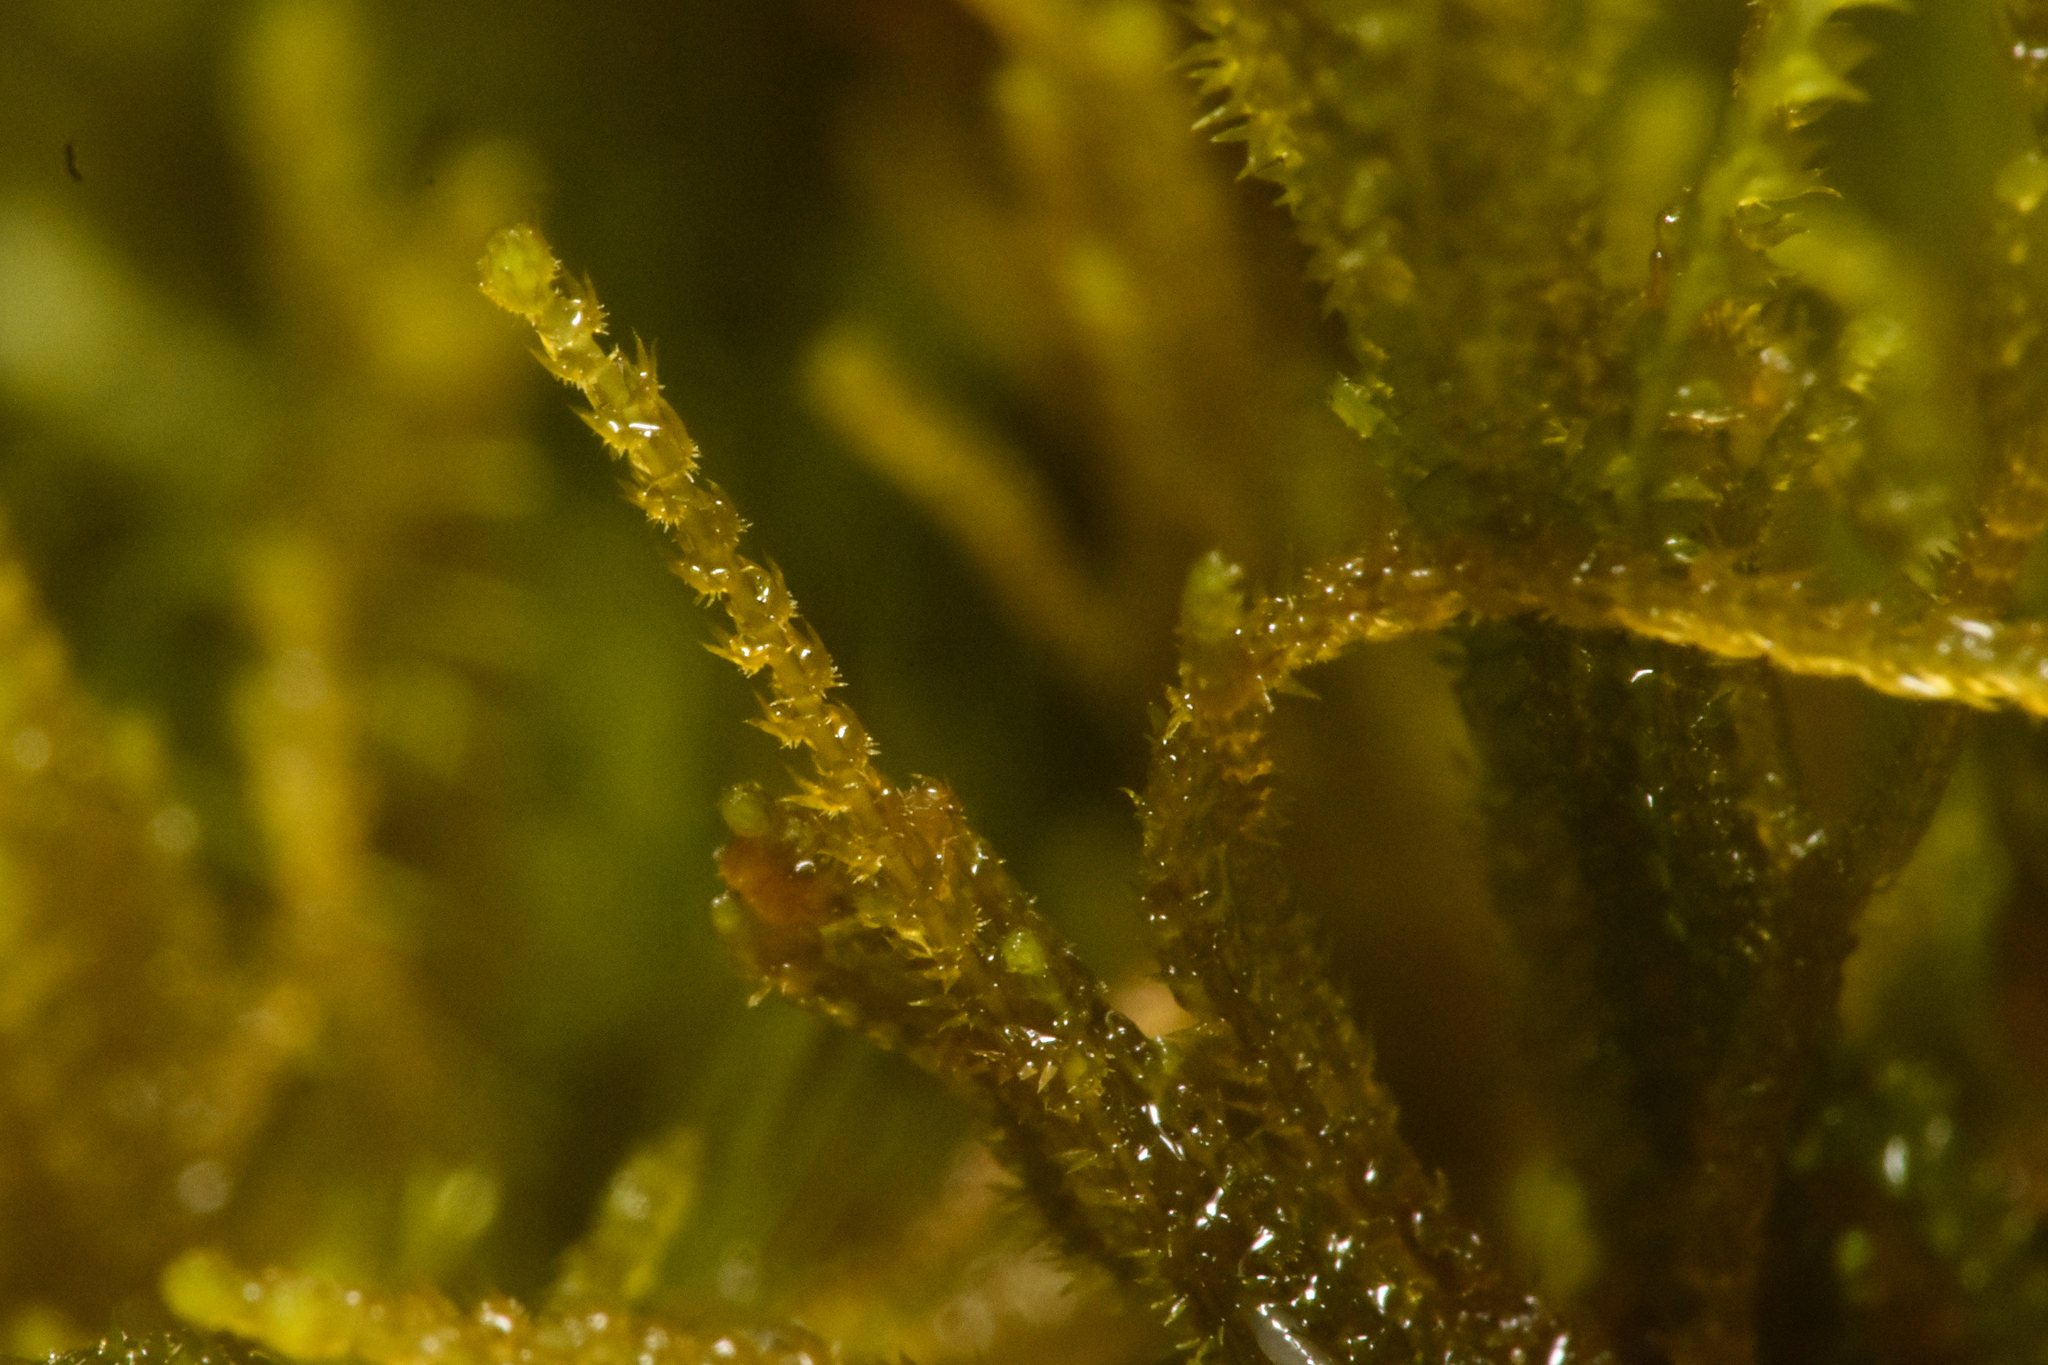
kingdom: Plantae
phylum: Marchantiophyta
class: Jungermanniopsida
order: Jungermanniales
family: Anastrophyllaceae
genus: Tetralophozia
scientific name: Tetralophozia setiformis
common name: Monster pawwort
